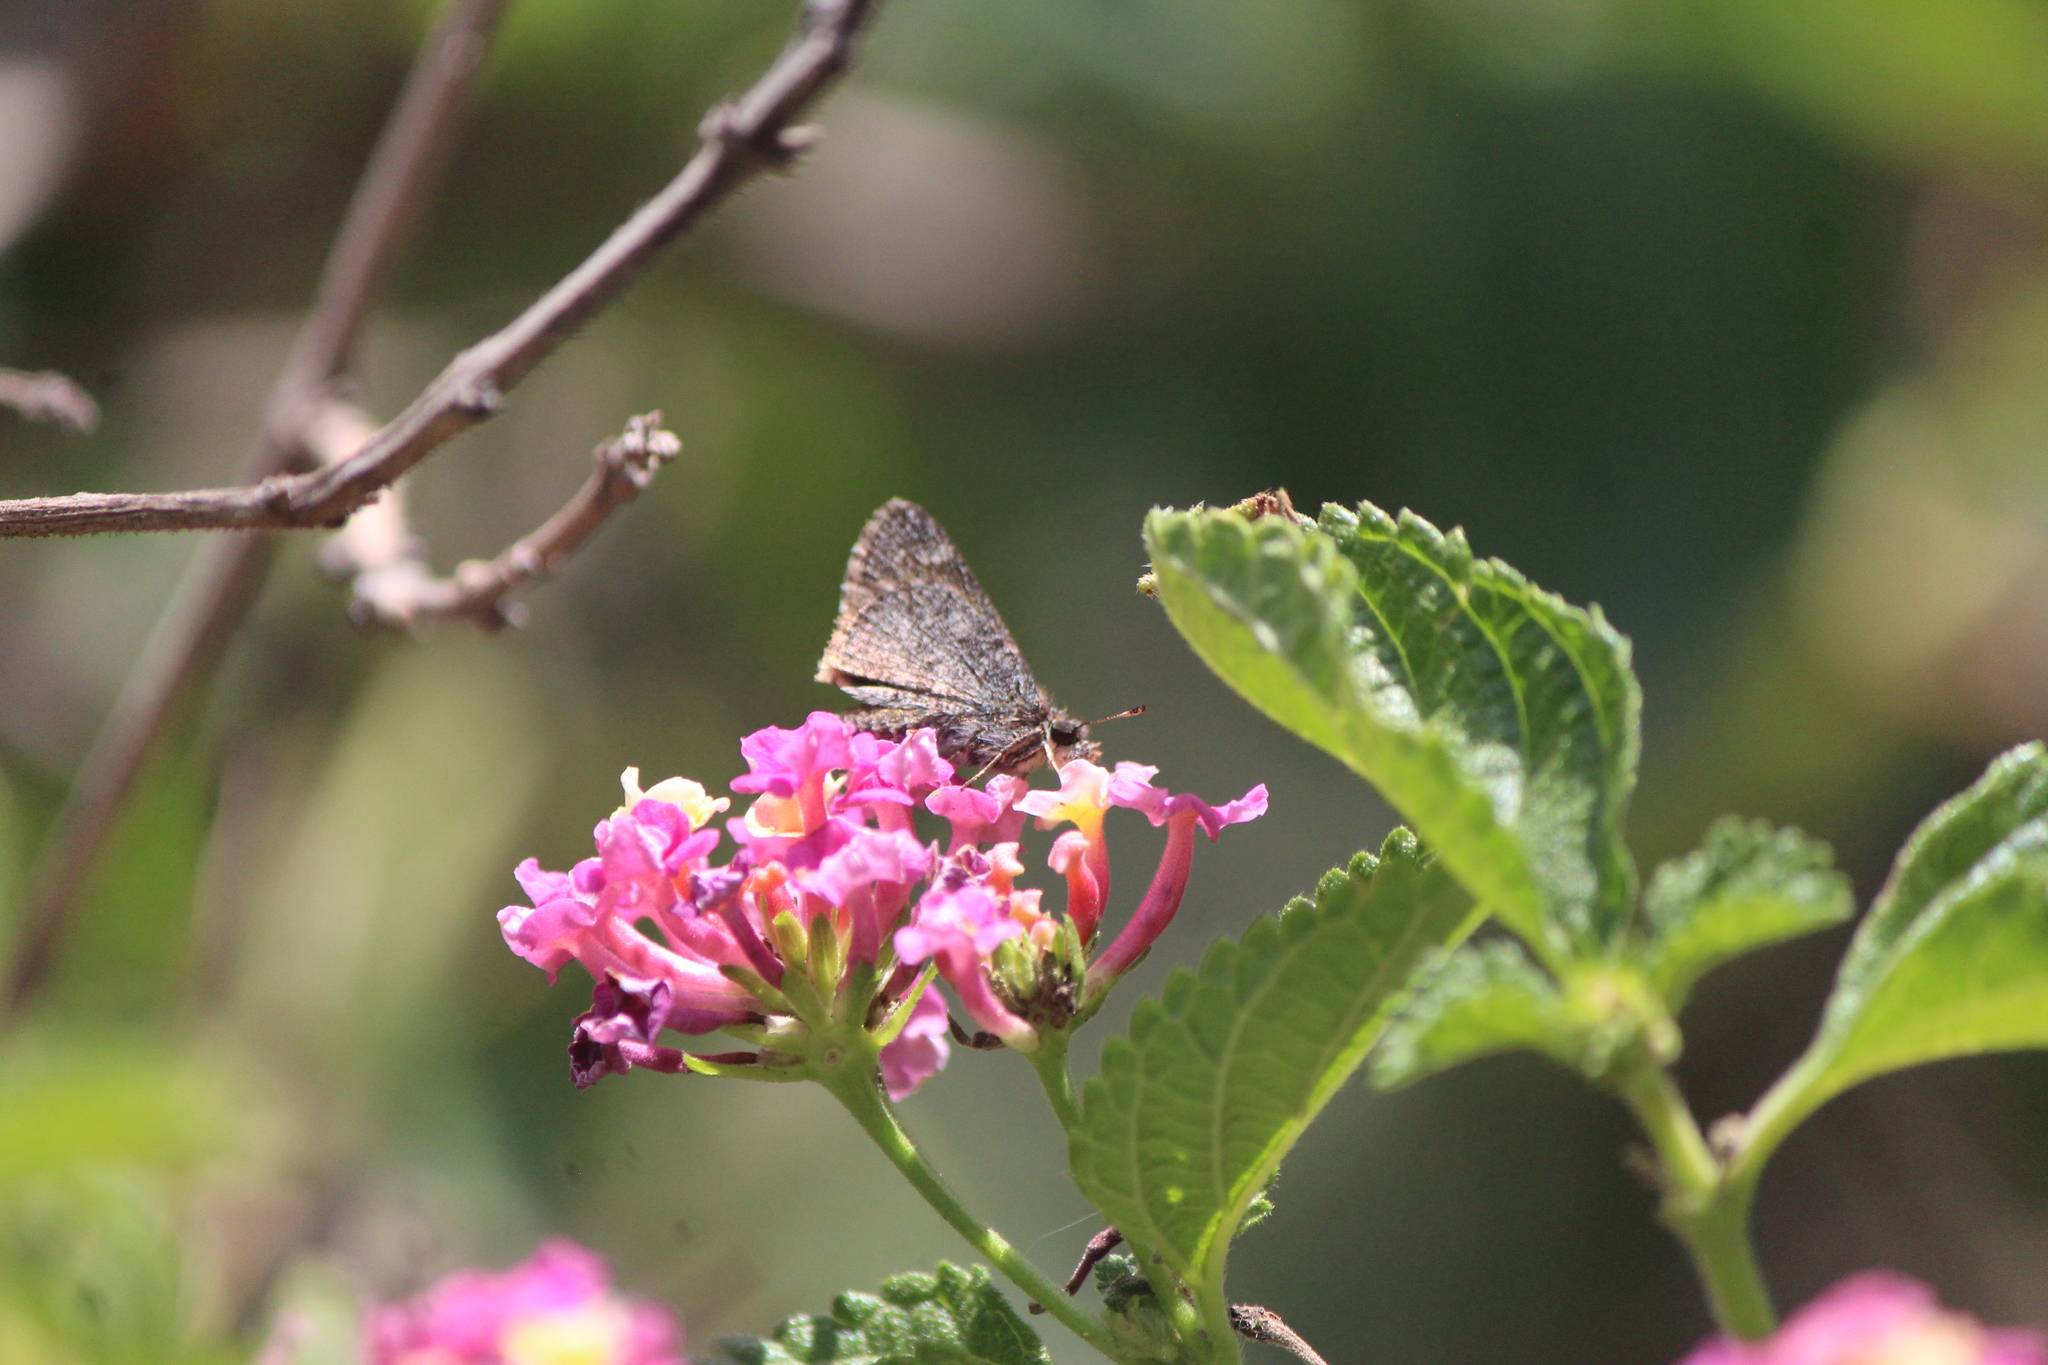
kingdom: Animalia
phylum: Arthropoda
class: Insecta
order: Lepidoptera
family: Hesperiidae
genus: Mastor
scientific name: Mastor fluonia
